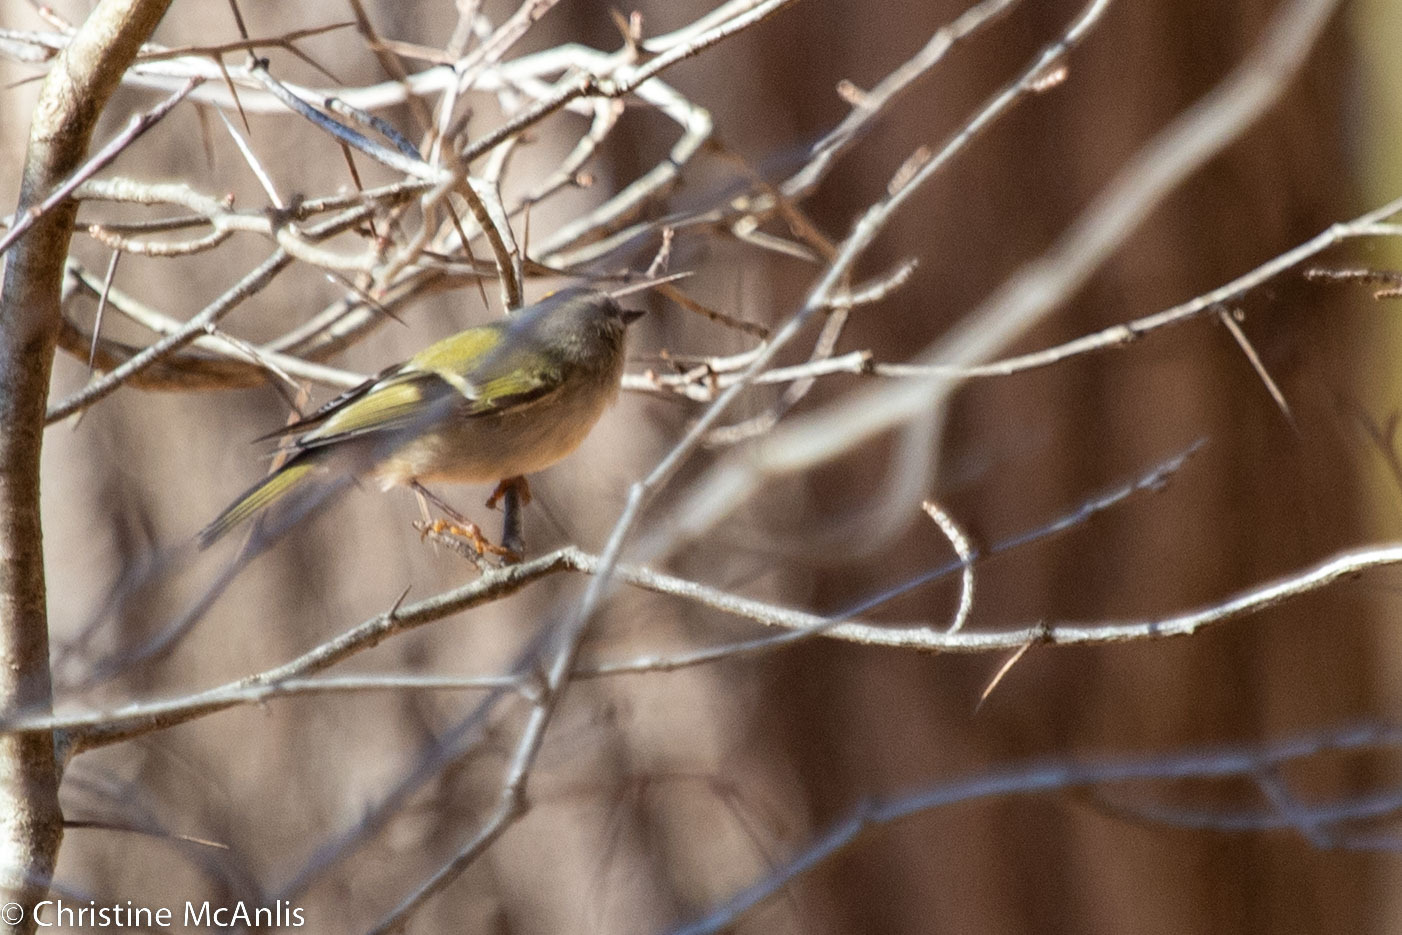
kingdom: Animalia
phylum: Chordata
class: Aves
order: Passeriformes
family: Regulidae
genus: Regulus
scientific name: Regulus satrapa
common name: Golden-crowned kinglet
